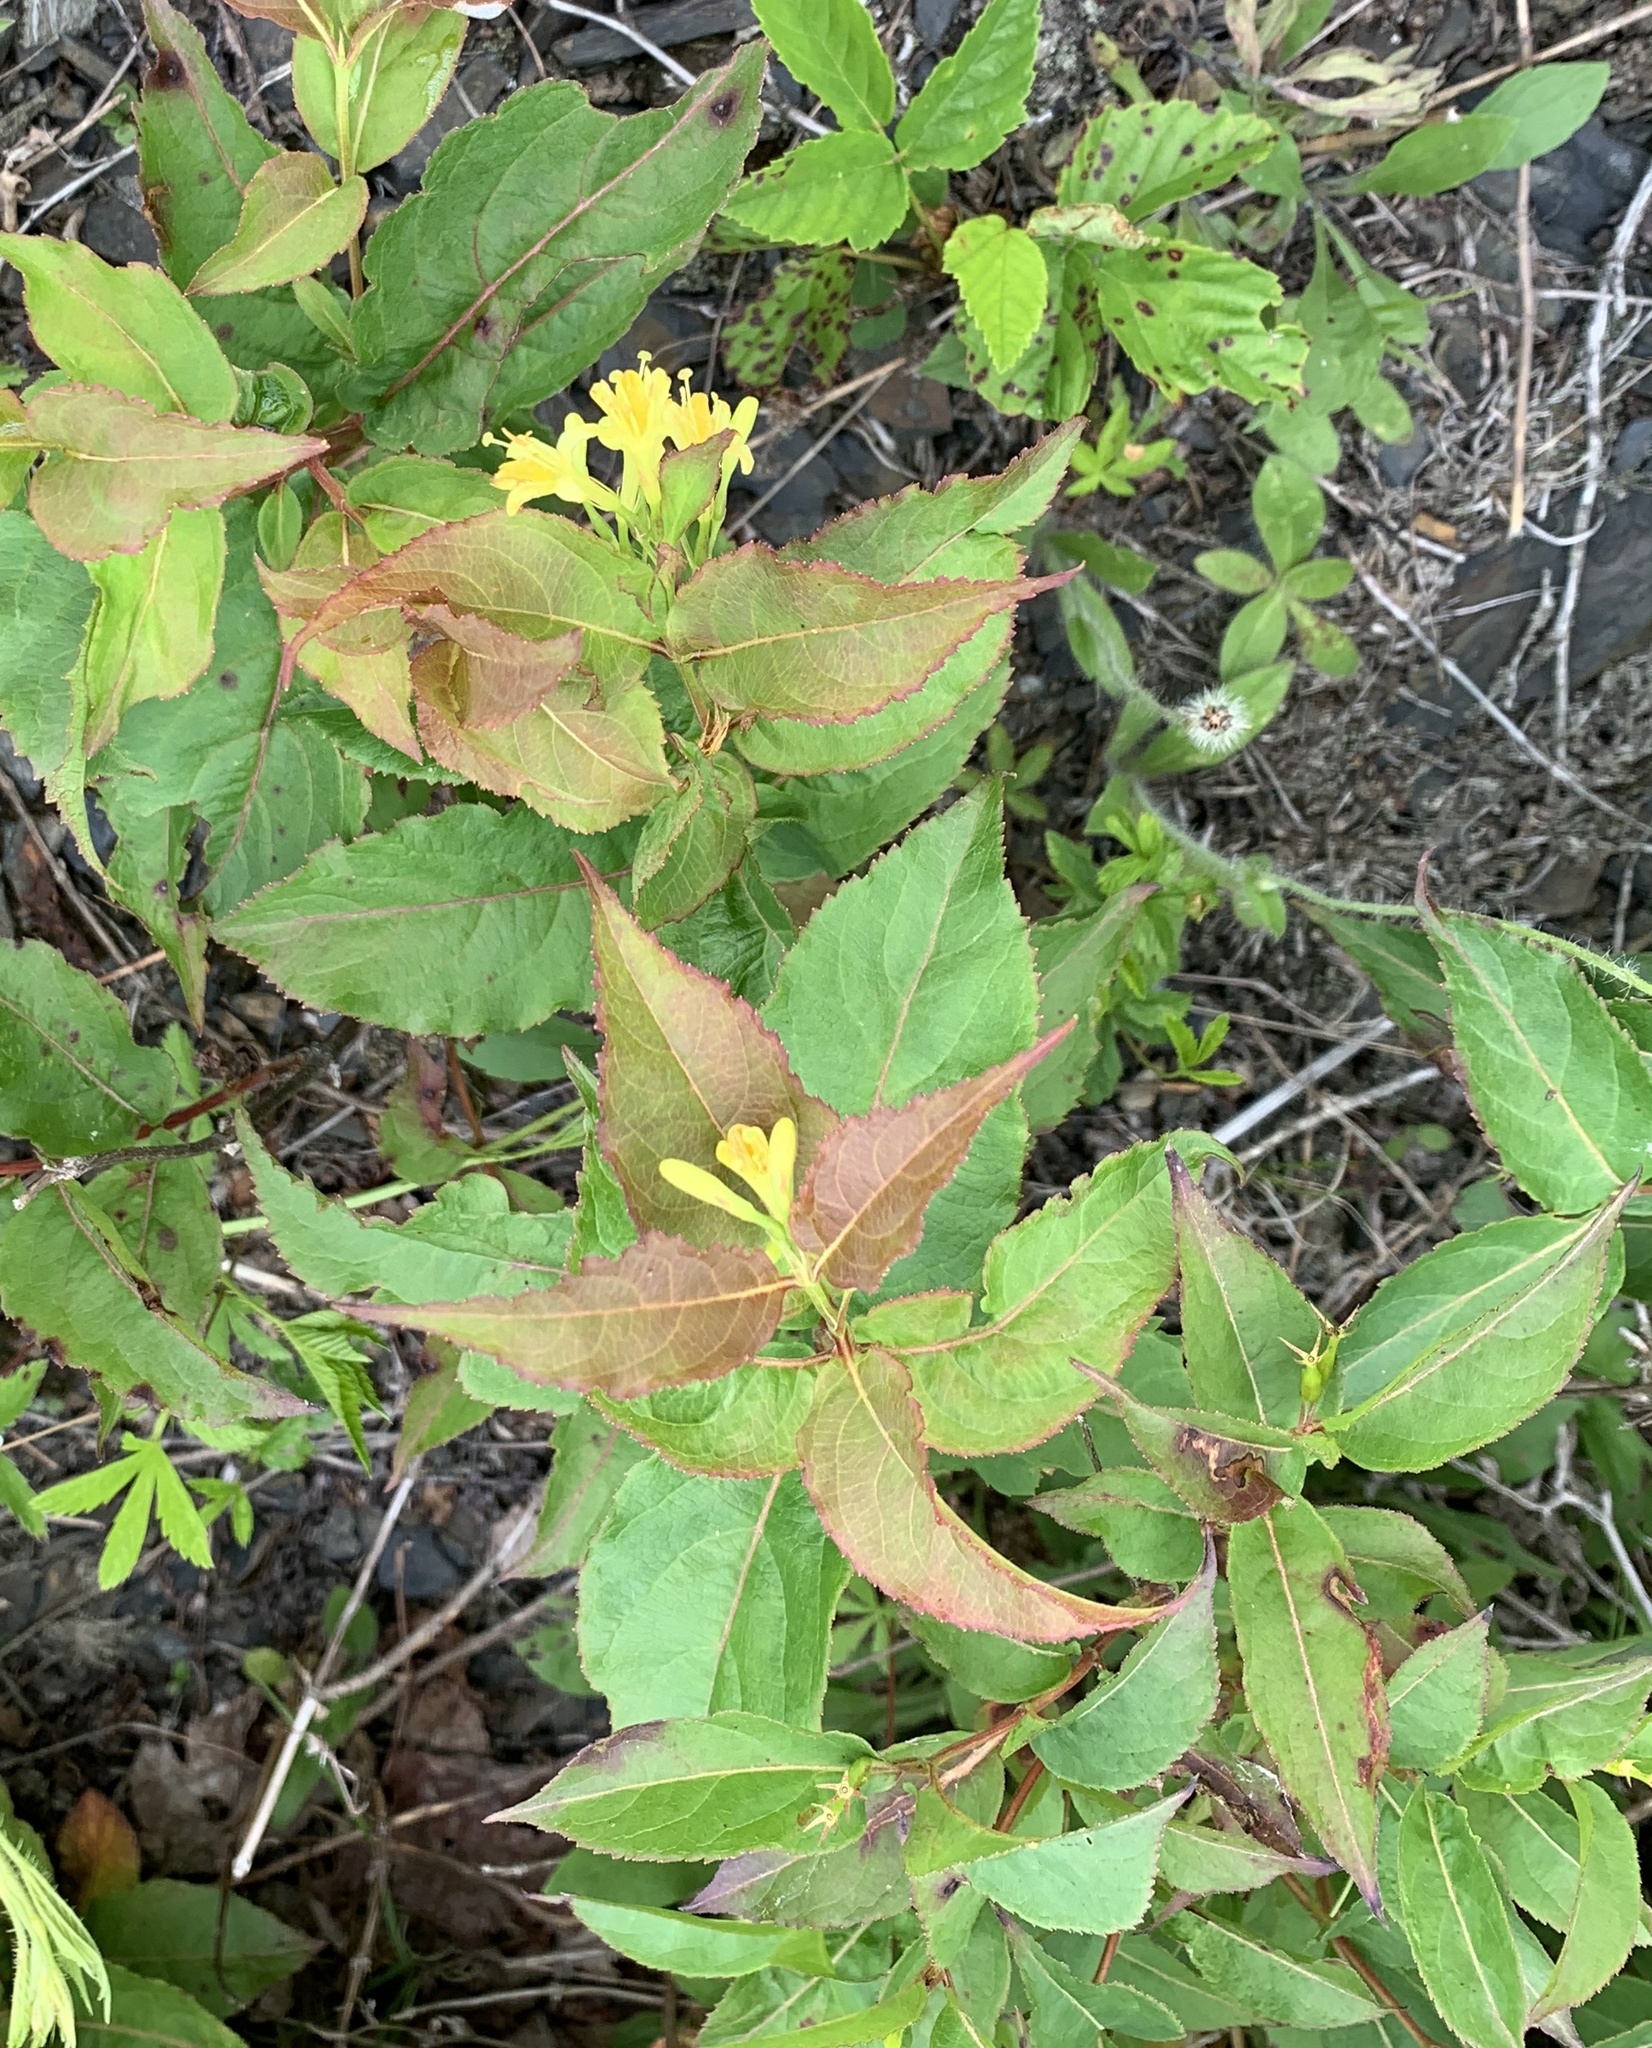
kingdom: Plantae
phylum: Tracheophyta
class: Magnoliopsida
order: Dipsacales
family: Caprifoliaceae
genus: Diervilla
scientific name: Diervilla lonicera
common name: Bush-honeysuckle
